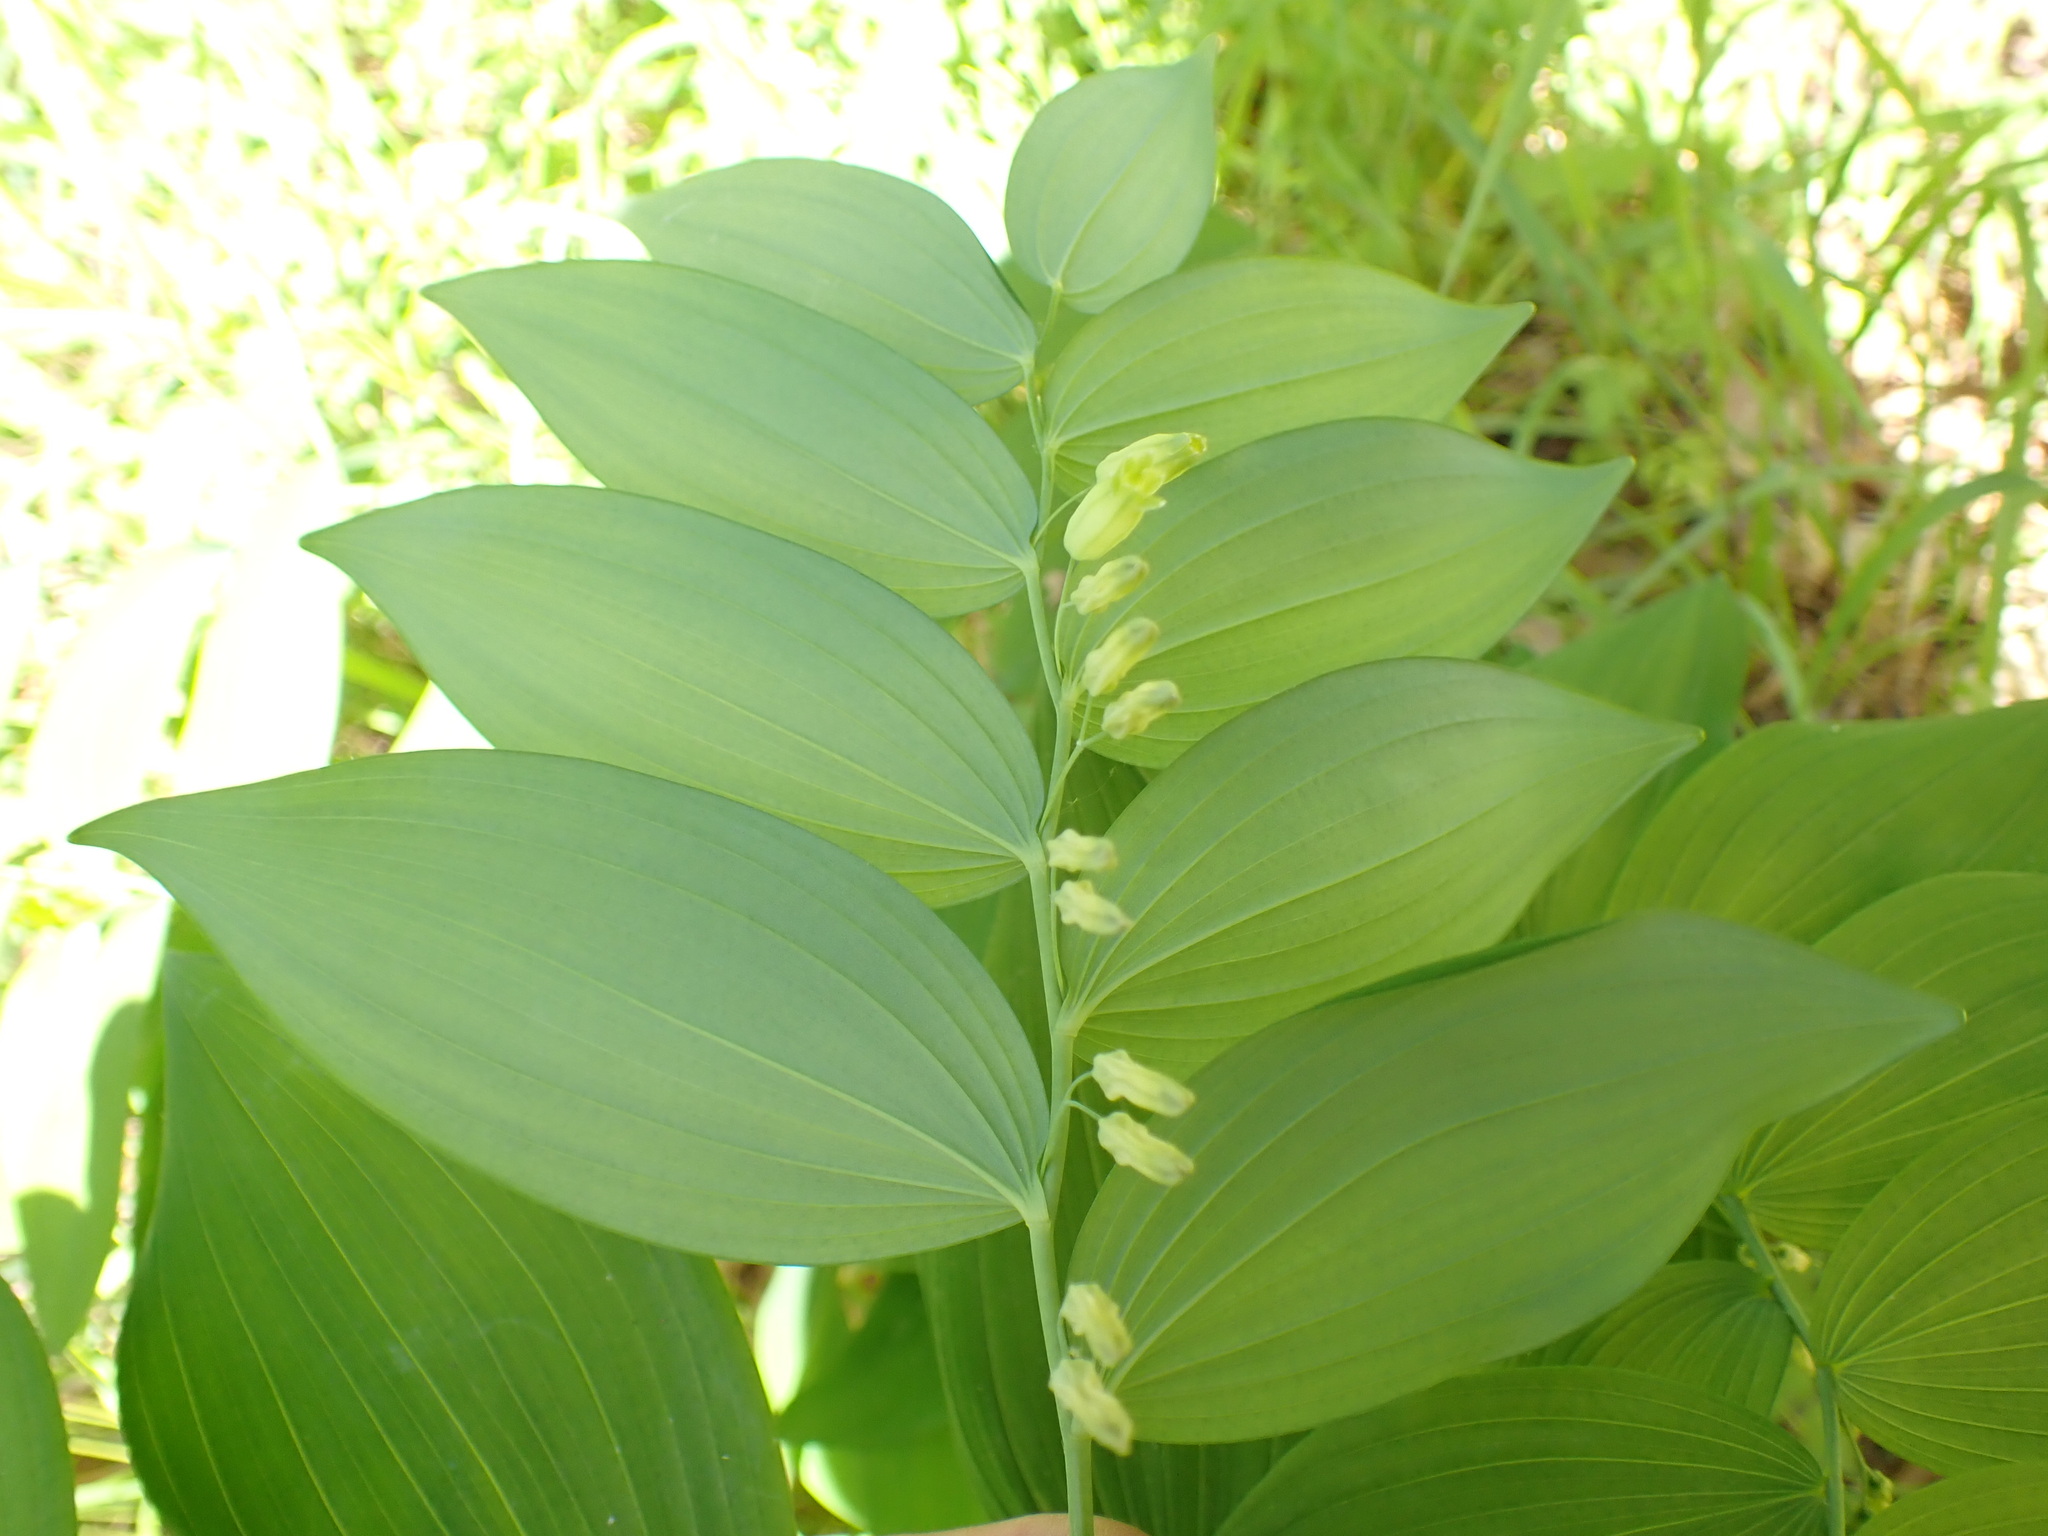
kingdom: Plantae
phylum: Tracheophyta
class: Liliopsida
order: Asparagales
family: Asparagaceae
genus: Polygonatum
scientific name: Polygonatum multiflorum
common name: Solomon's-seal
